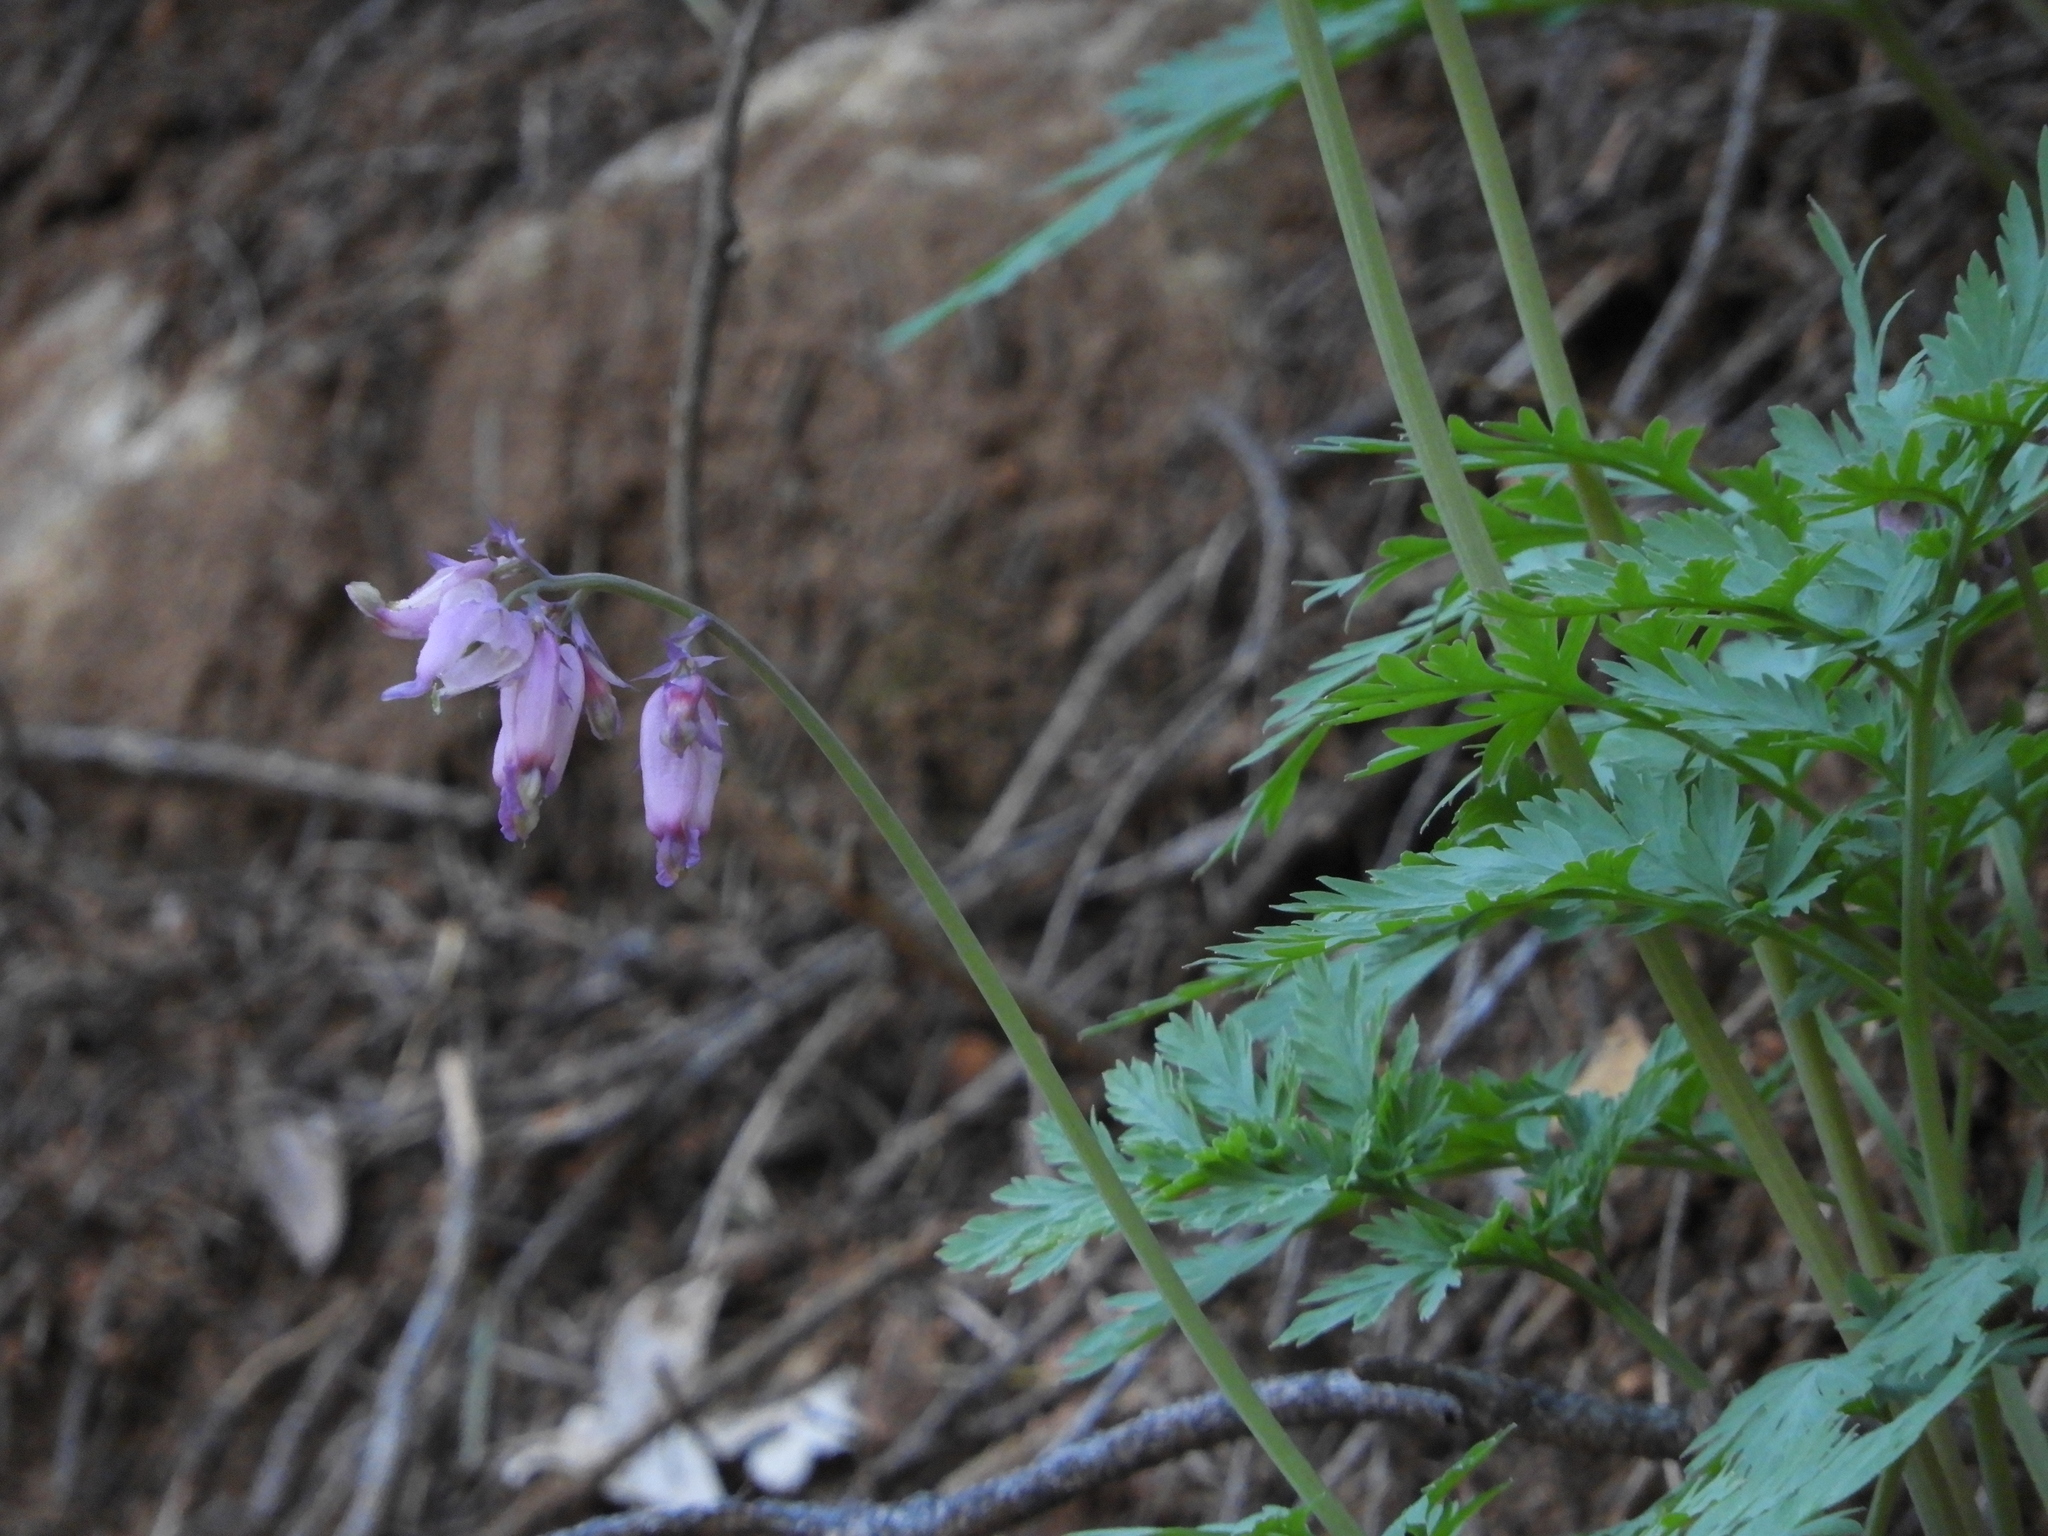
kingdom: Plantae
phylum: Tracheophyta
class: Magnoliopsida
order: Ranunculales
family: Papaveraceae
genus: Dicentra
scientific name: Dicentra formosa
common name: Bleeding-heart
